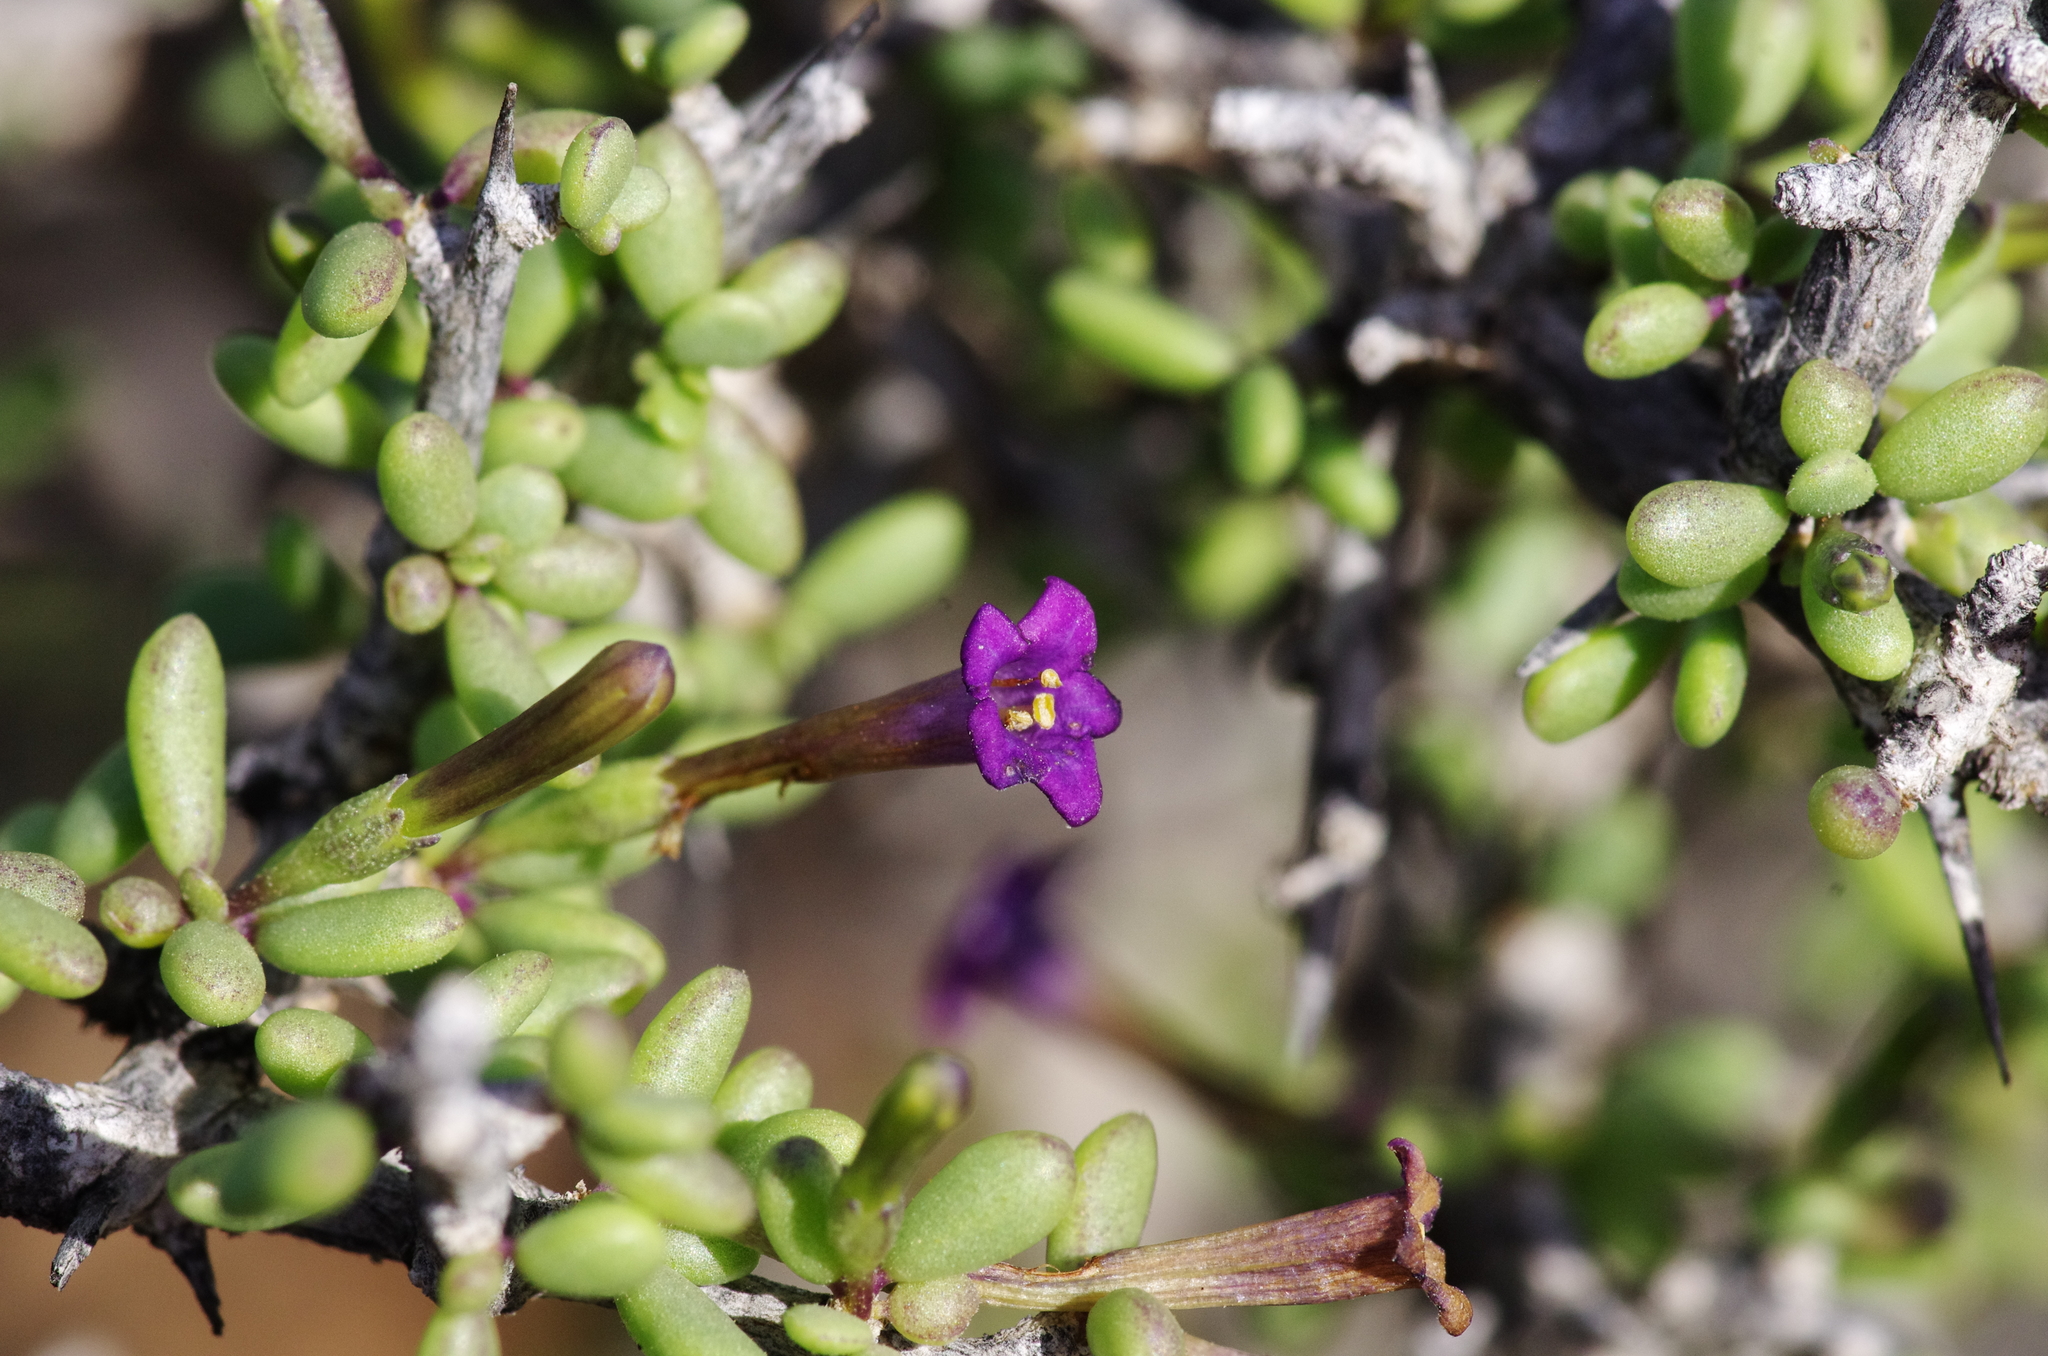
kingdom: Plantae
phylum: Tracheophyta
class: Magnoliopsida
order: Solanales
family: Solanaceae
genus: Lycium
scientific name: Lycium intricatum
